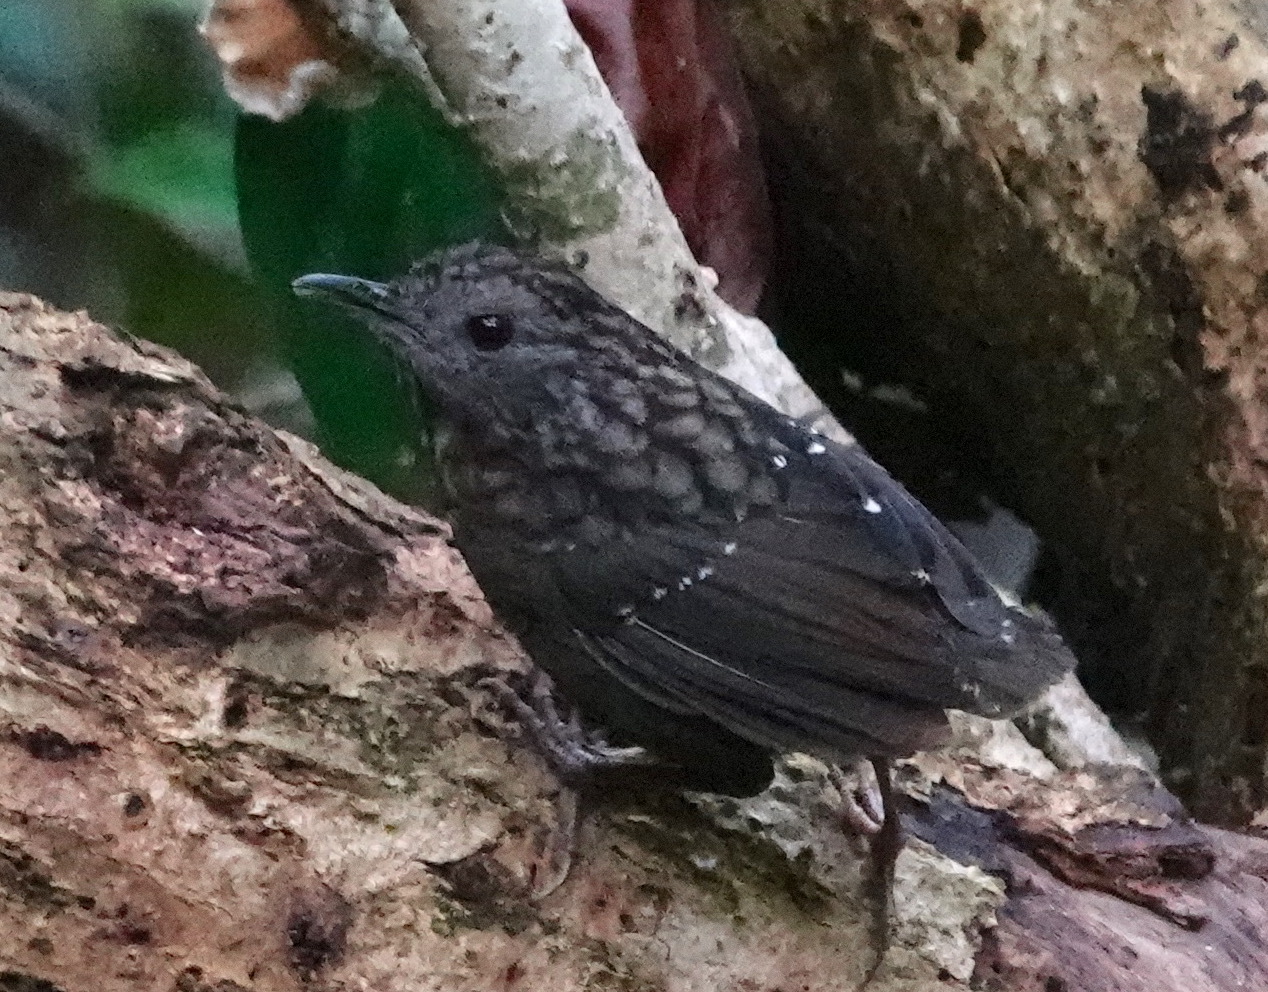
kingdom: Animalia
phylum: Chordata
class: Aves
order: Passeriformes
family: Pellorneidae
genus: Napothera
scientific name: Napothera brevicaudata
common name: Streaked wren-babbler
